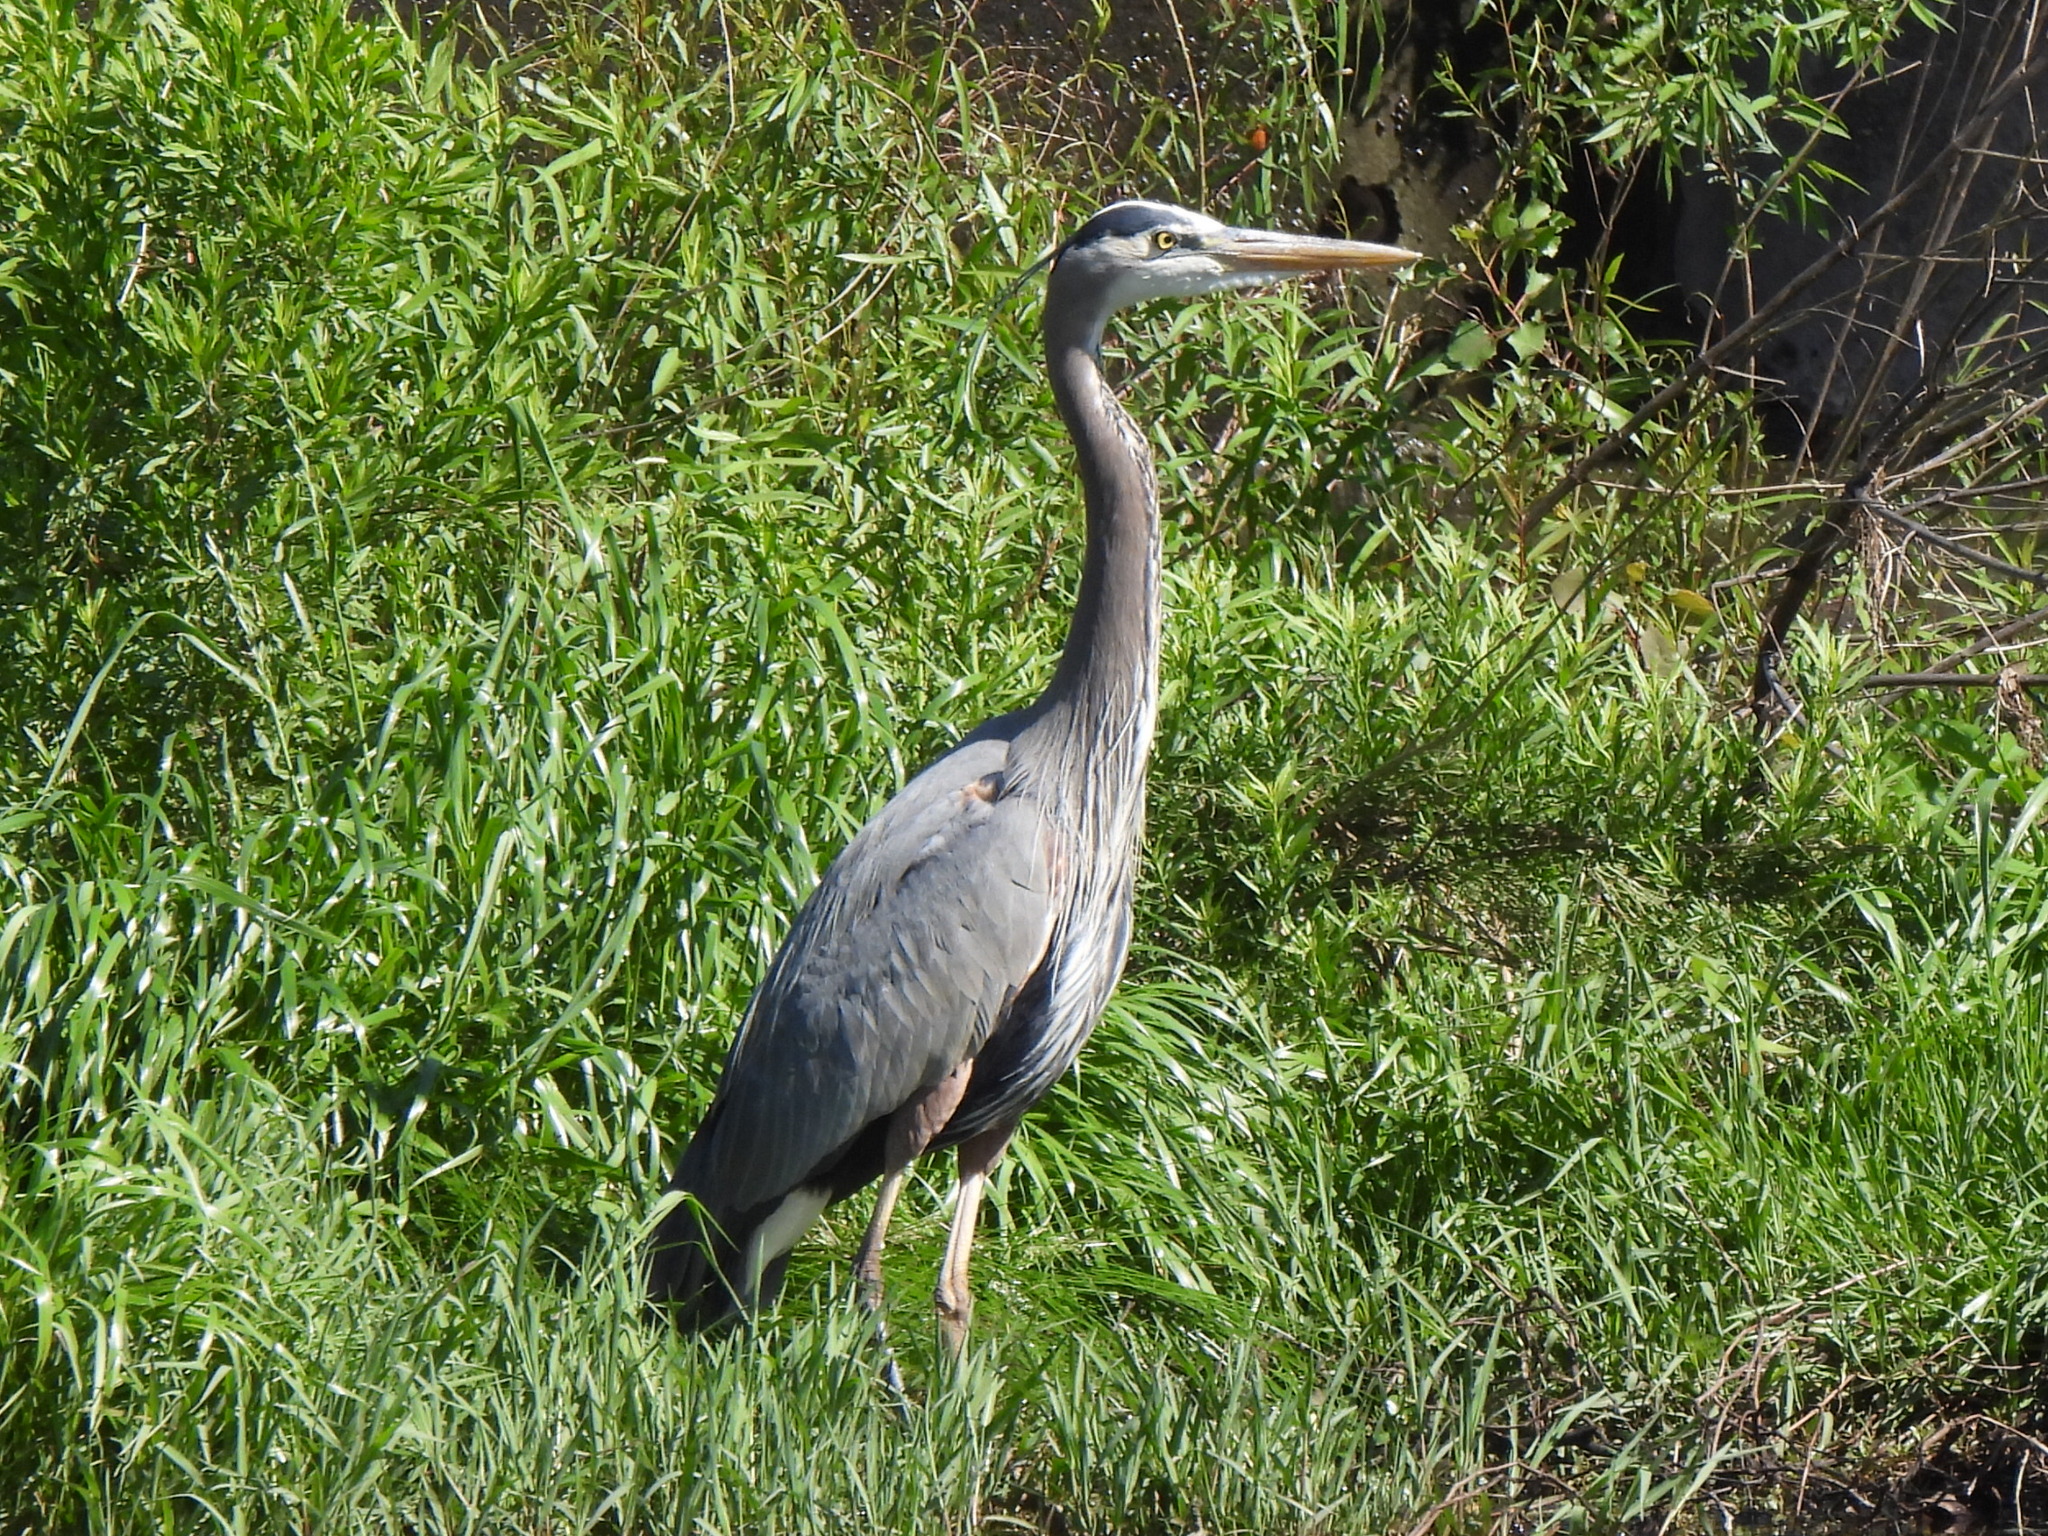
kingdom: Animalia
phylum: Chordata
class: Aves
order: Pelecaniformes
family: Ardeidae
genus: Ardea
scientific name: Ardea herodias
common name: Great blue heron
